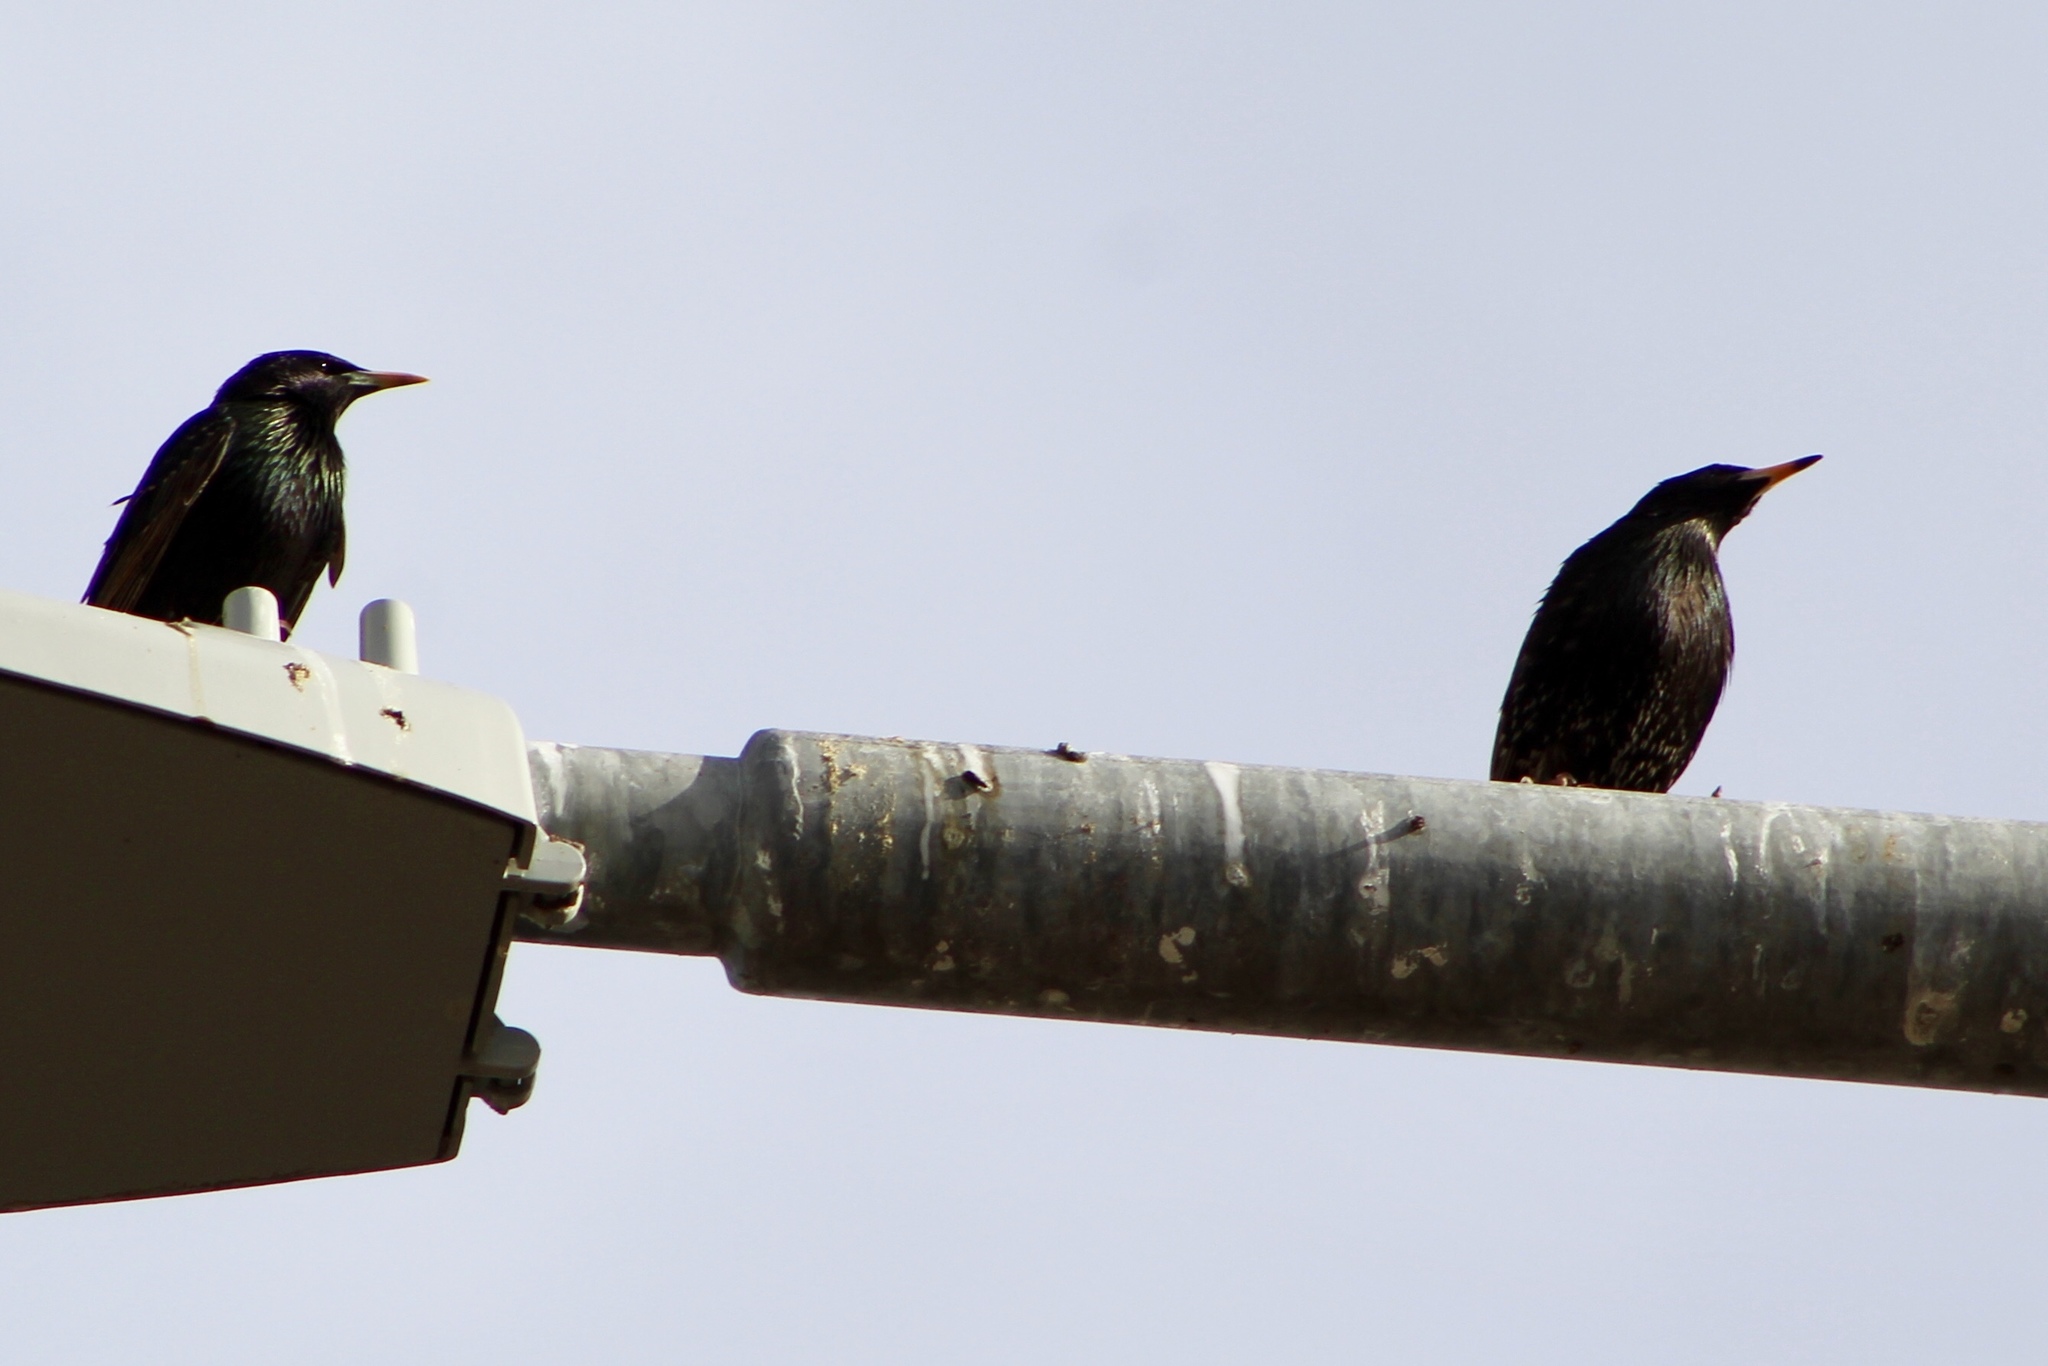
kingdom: Animalia
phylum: Chordata
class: Aves
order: Passeriformes
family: Sturnidae
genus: Sturnus
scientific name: Sturnus vulgaris
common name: Common starling
